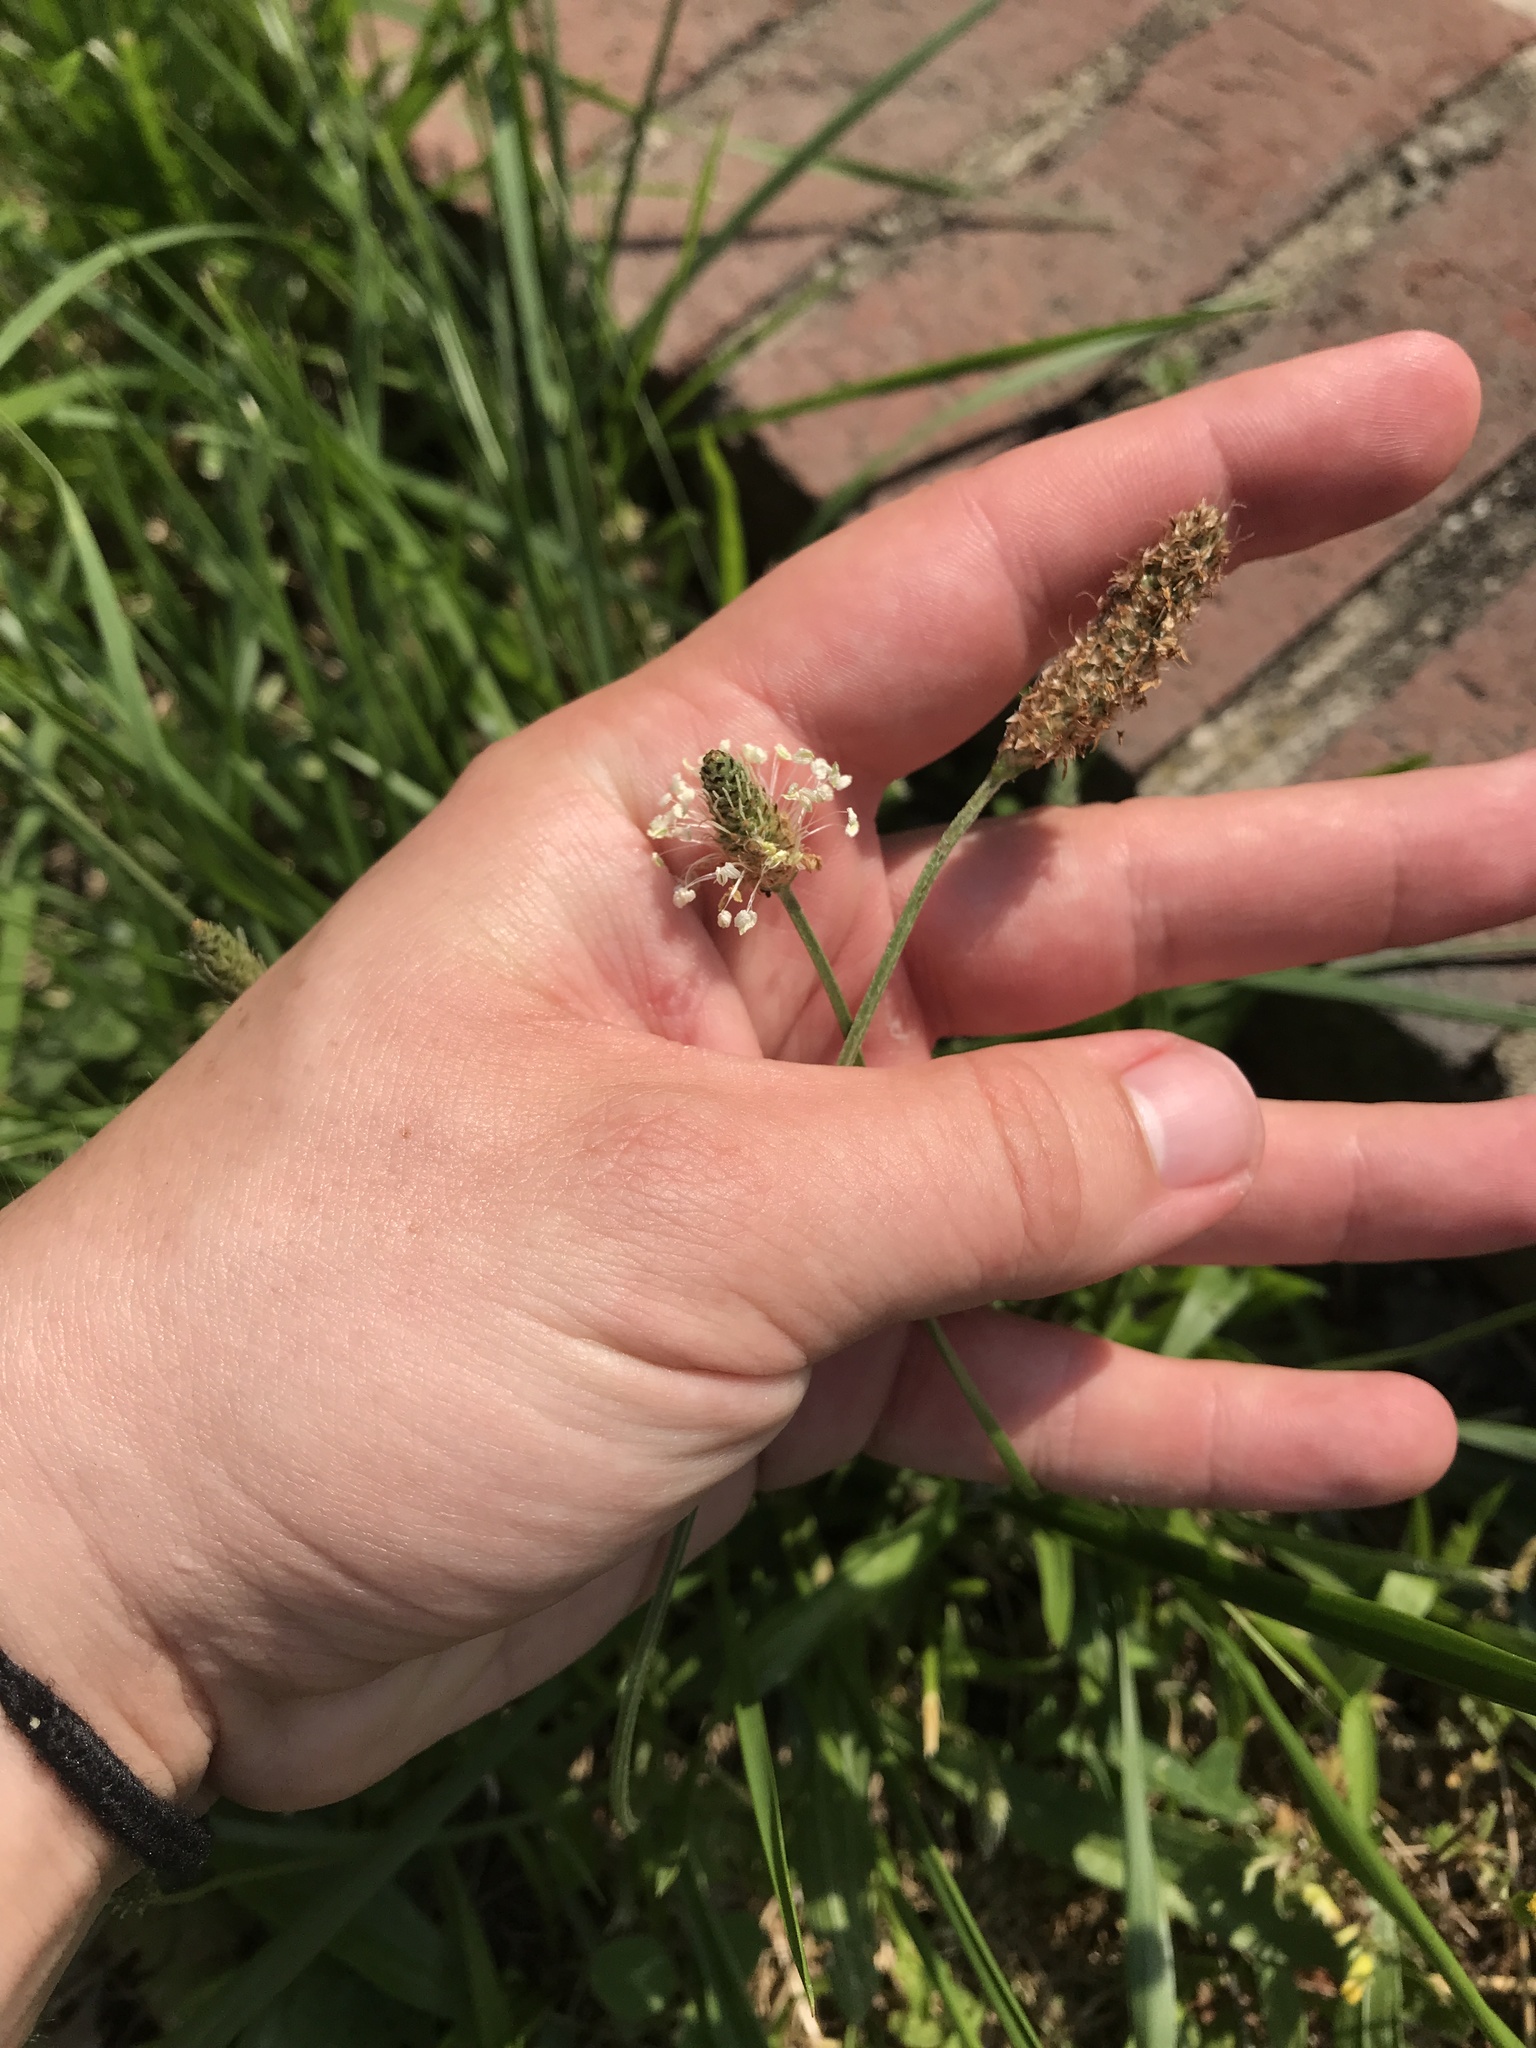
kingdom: Plantae
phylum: Tracheophyta
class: Magnoliopsida
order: Lamiales
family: Plantaginaceae
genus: Plantago
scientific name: Plantago lanceolata
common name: Ribwort plantain
